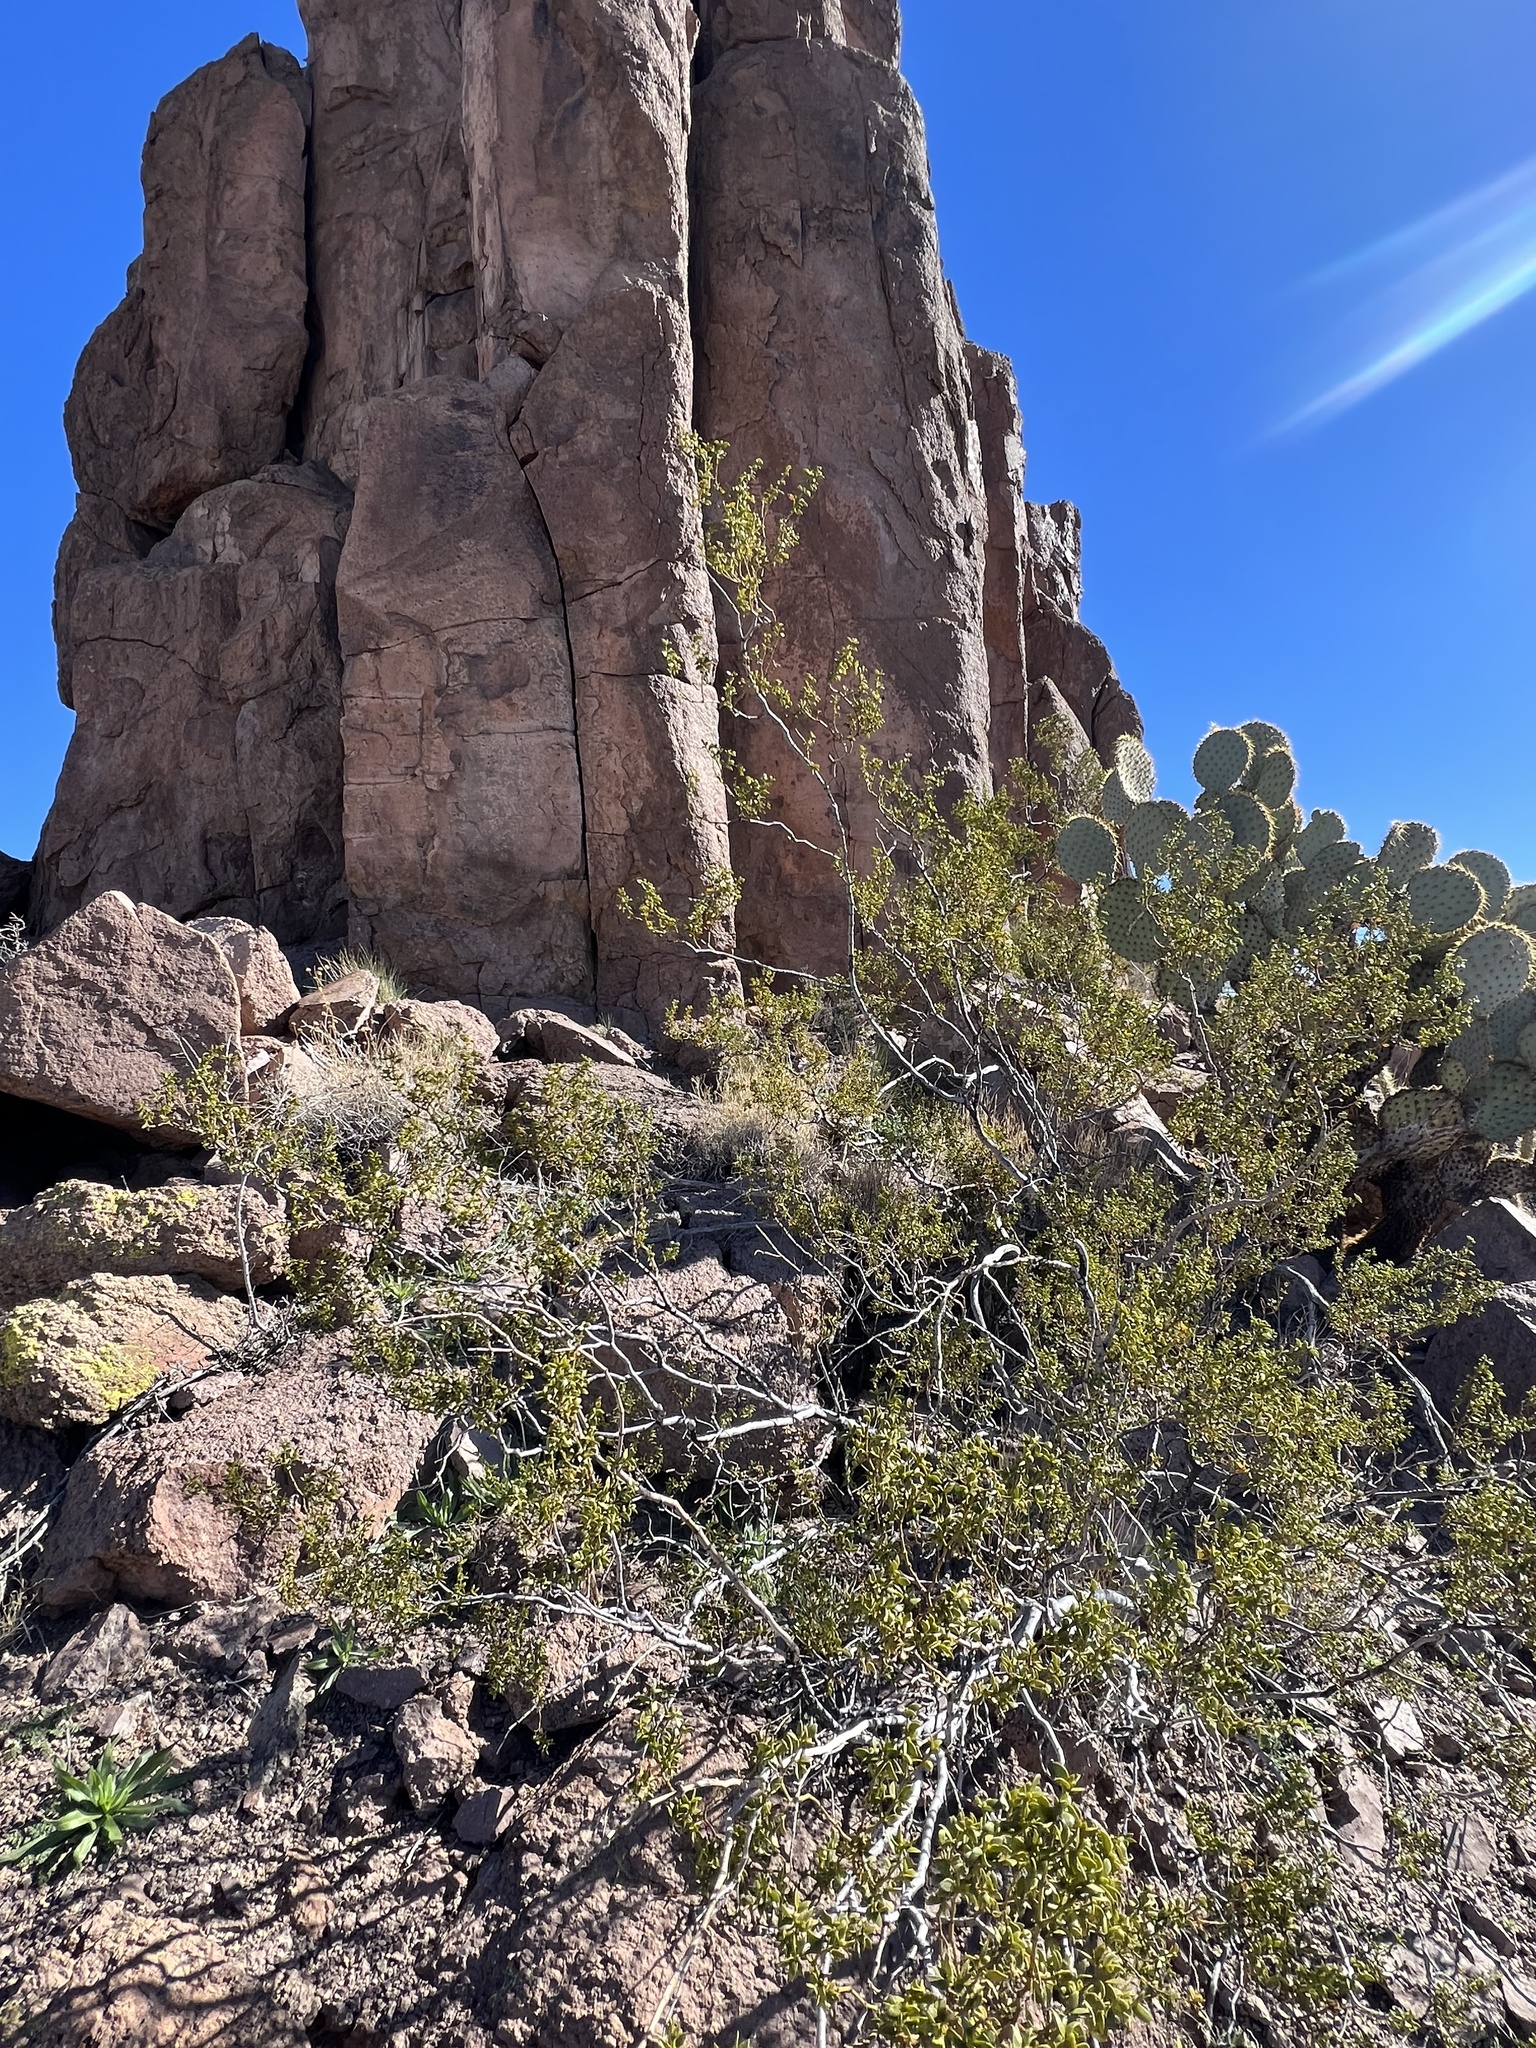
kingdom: Plantae
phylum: Tracheophyta
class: Magnoliopsida
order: Zygophyllales
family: Zygophyllaceae
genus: Larrea
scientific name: Larrea tridentata
